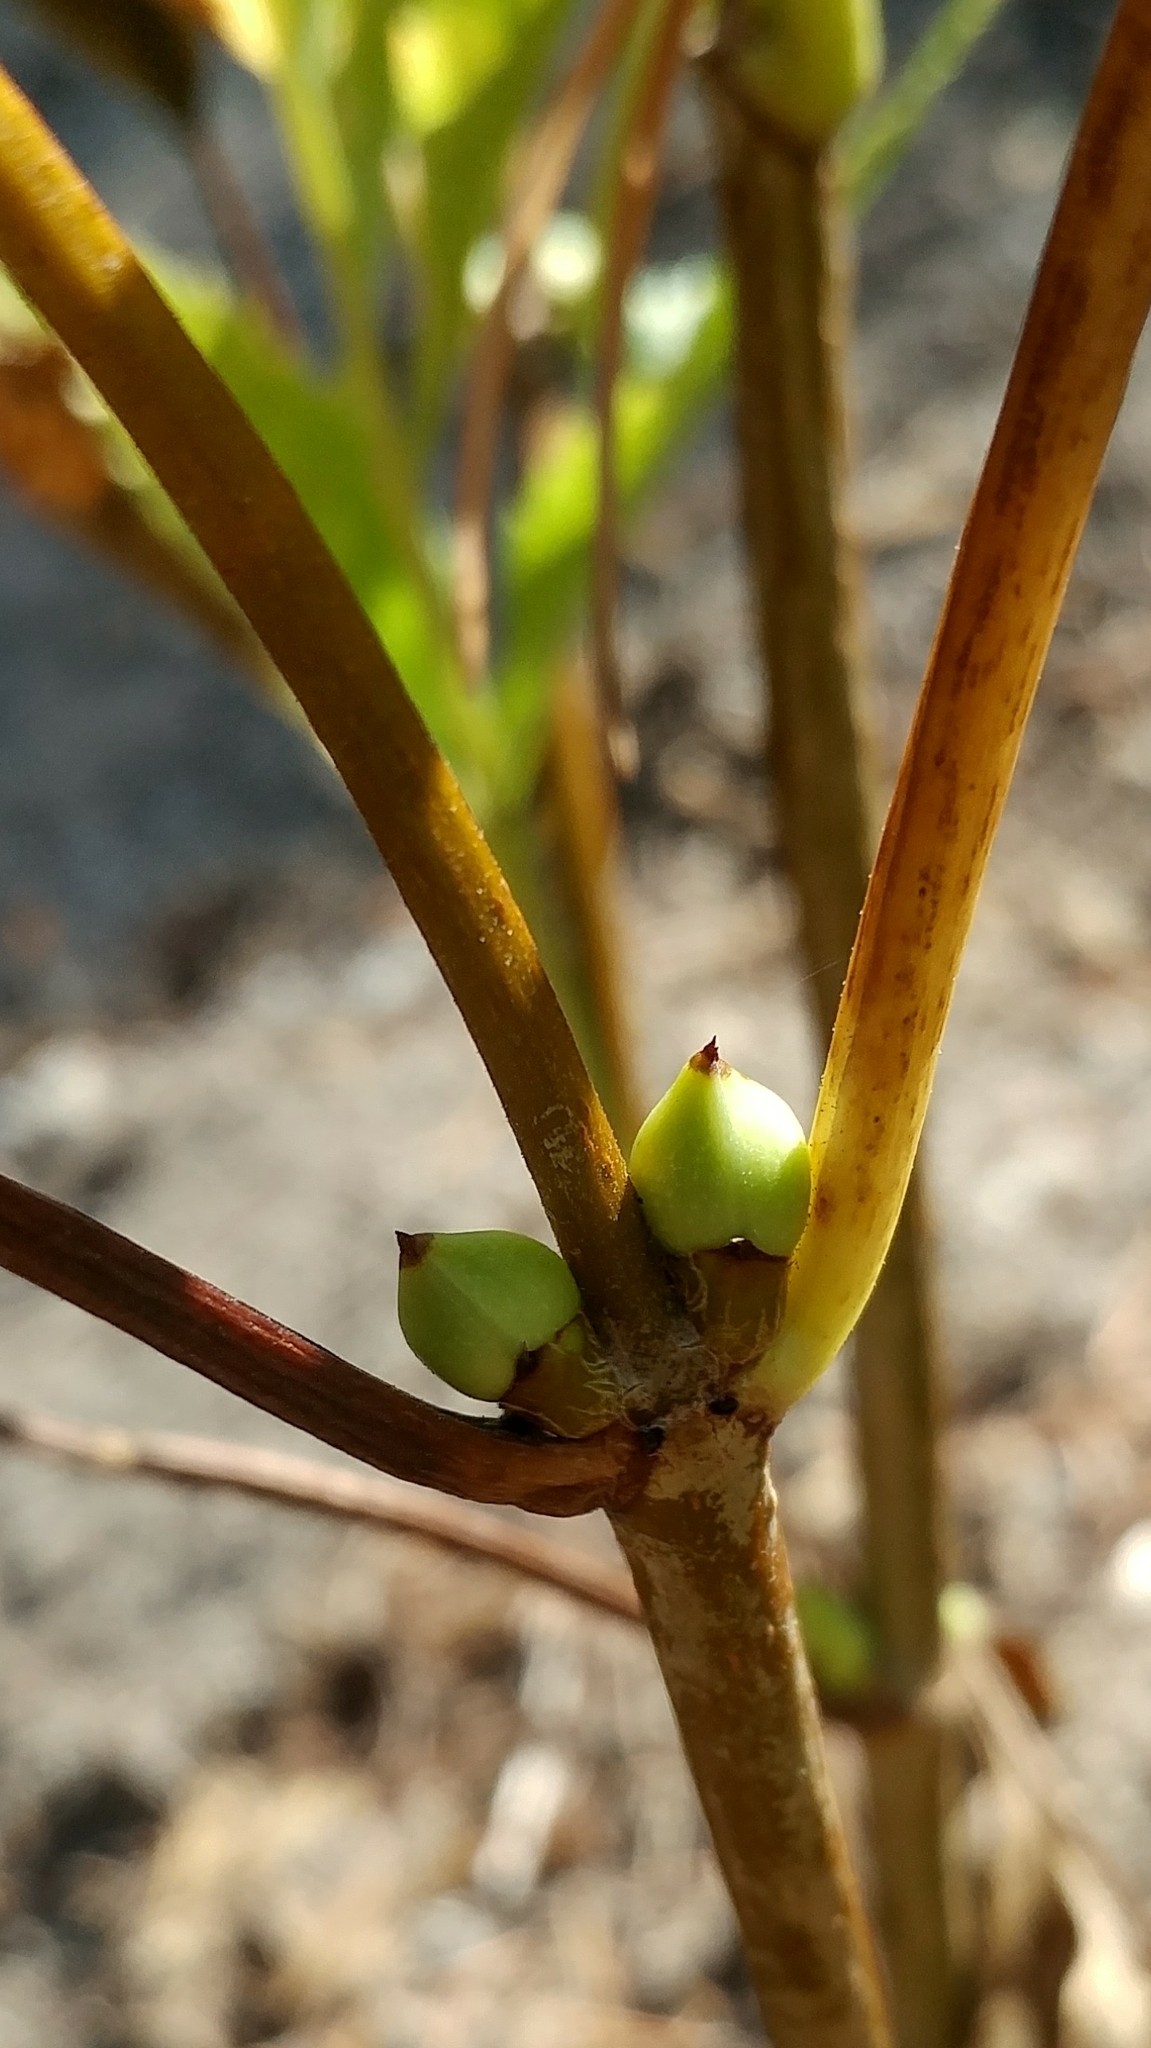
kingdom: Plantae
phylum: Tracheophyta
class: Magnoliopsida
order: Dipsacales
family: Viburnaceae
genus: Sambucus
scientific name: Sambucus racemosa
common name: Red-berried elder
